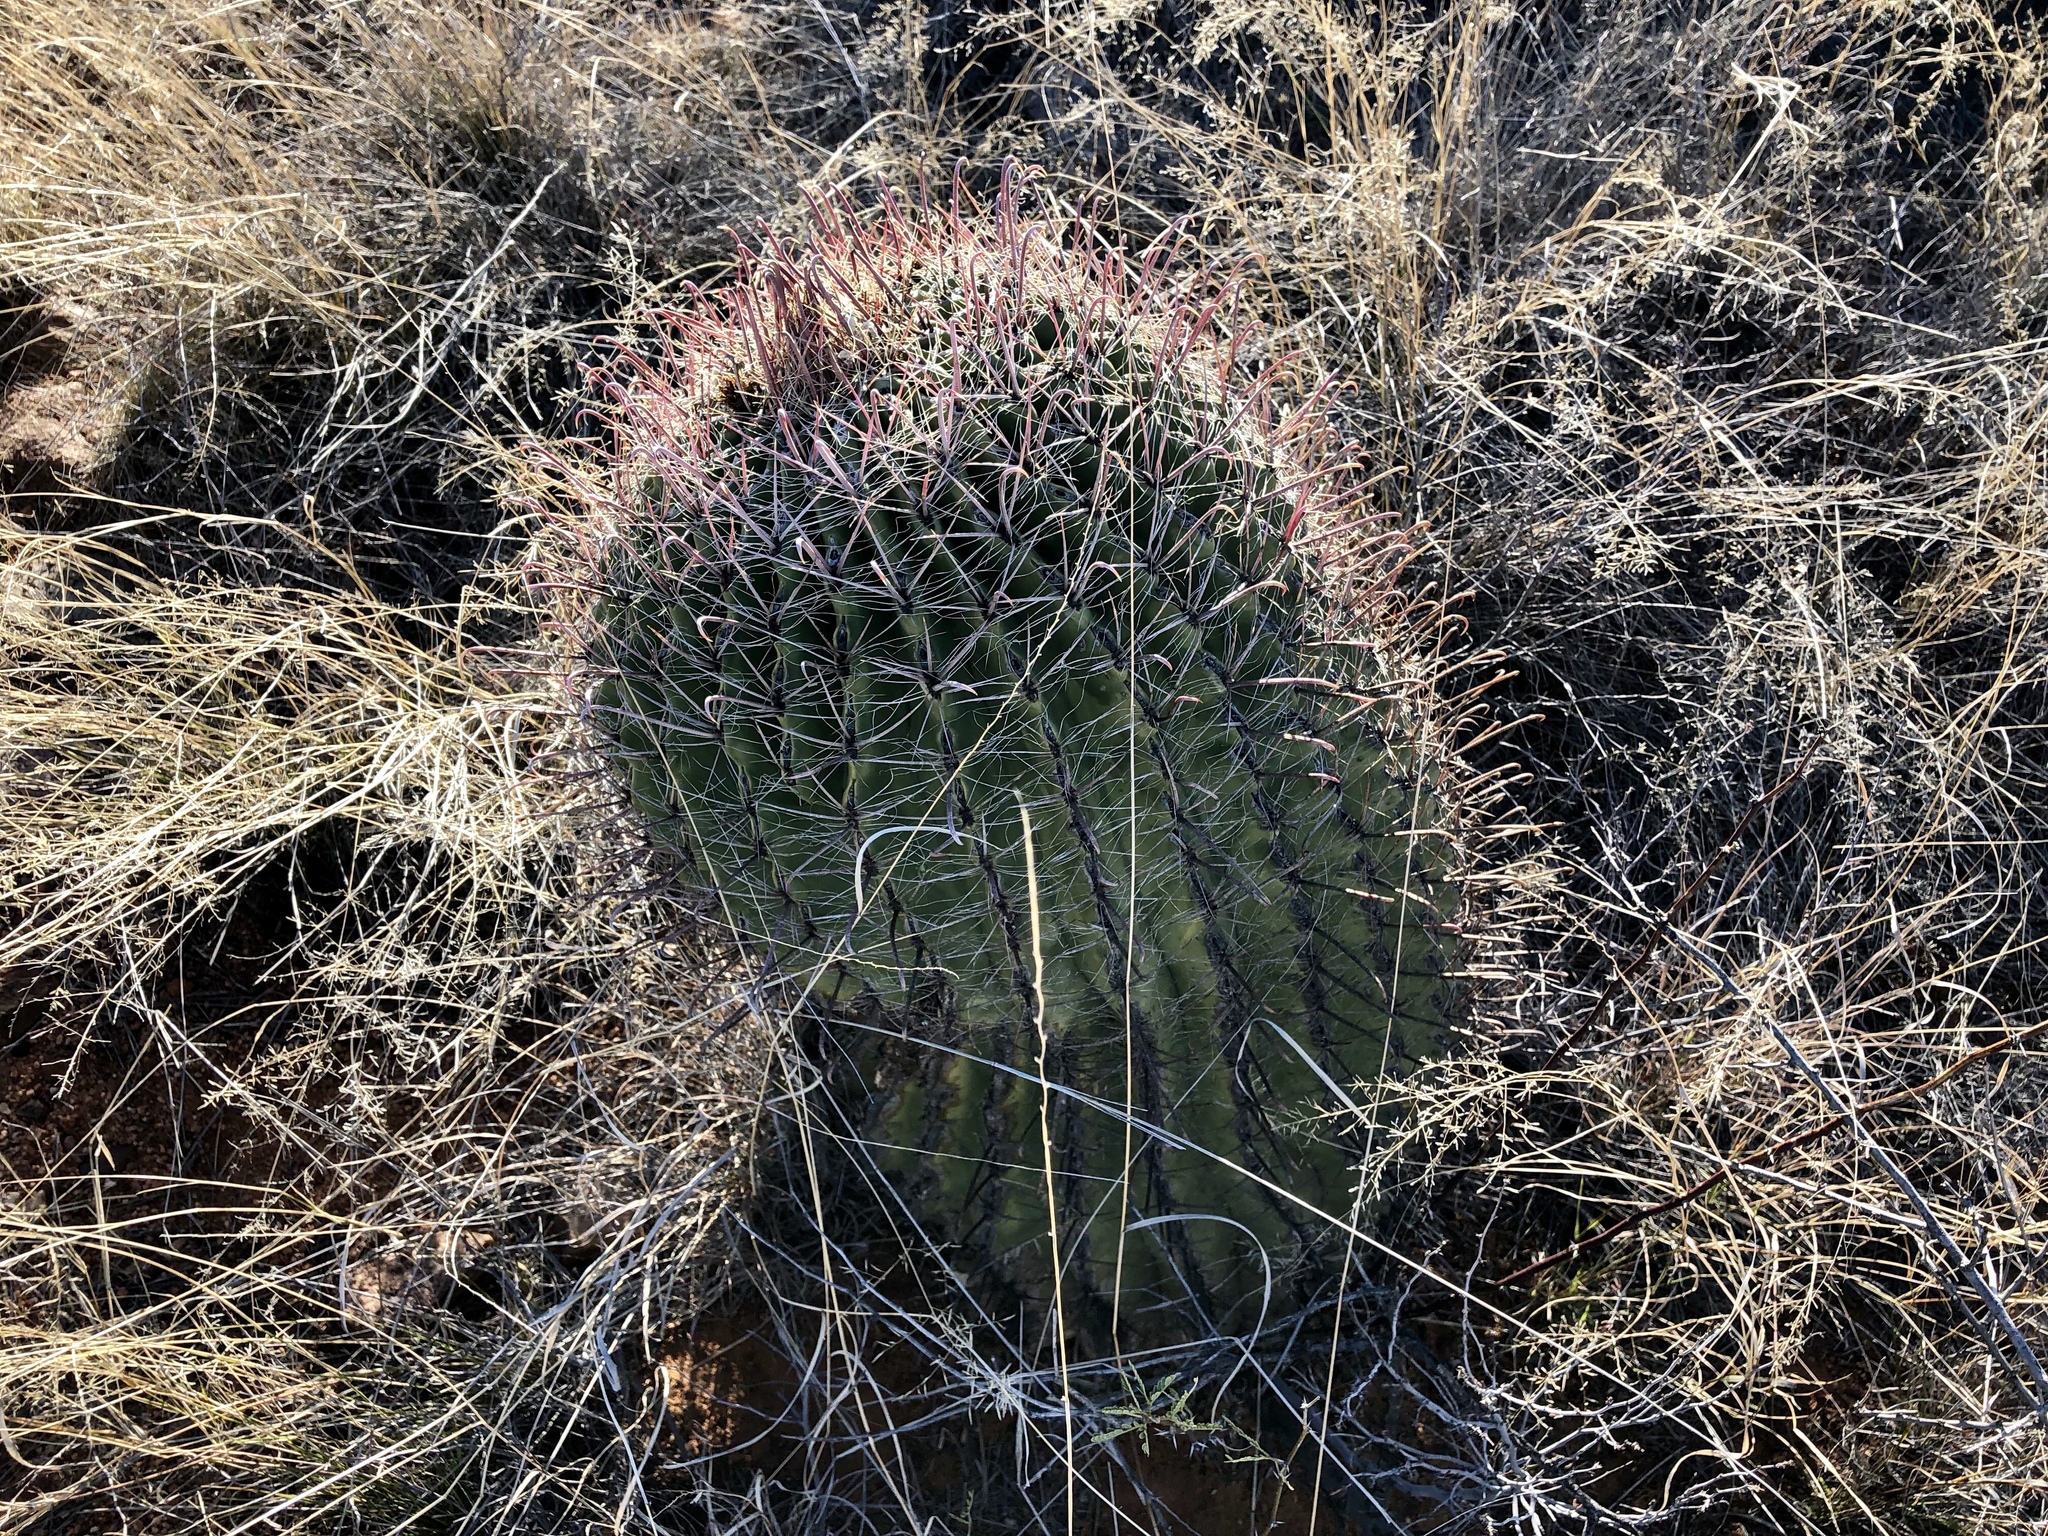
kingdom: Plantae
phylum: Tracheophyta
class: Magnoliopsida
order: Caryophyllales
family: Cactaceae
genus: Ferocactus
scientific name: Ferocactus wislizeni
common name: Candy barrel cactus
